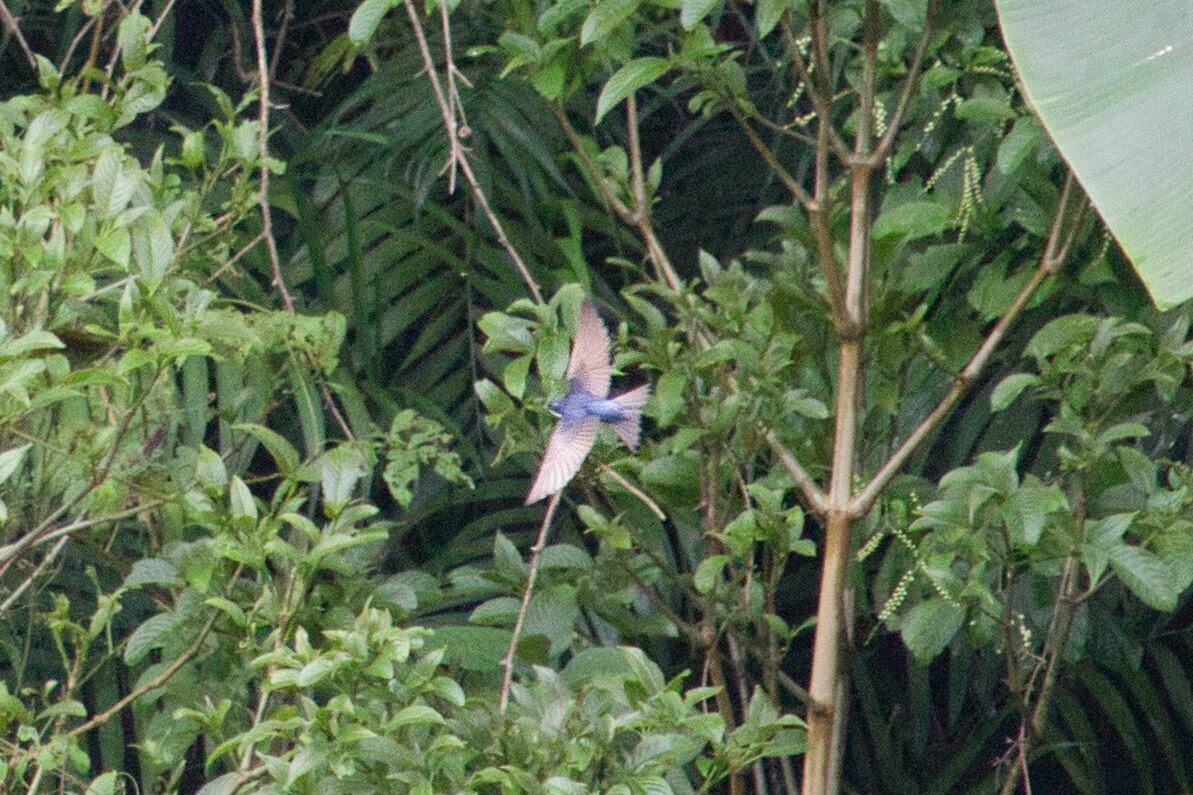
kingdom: Animalia
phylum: Chordata
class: Aves
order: Passeriformes
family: Hirundinidae
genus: Notiochelidon
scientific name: Notiochelidon cyanoleuca
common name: Blue-and-white swallow
